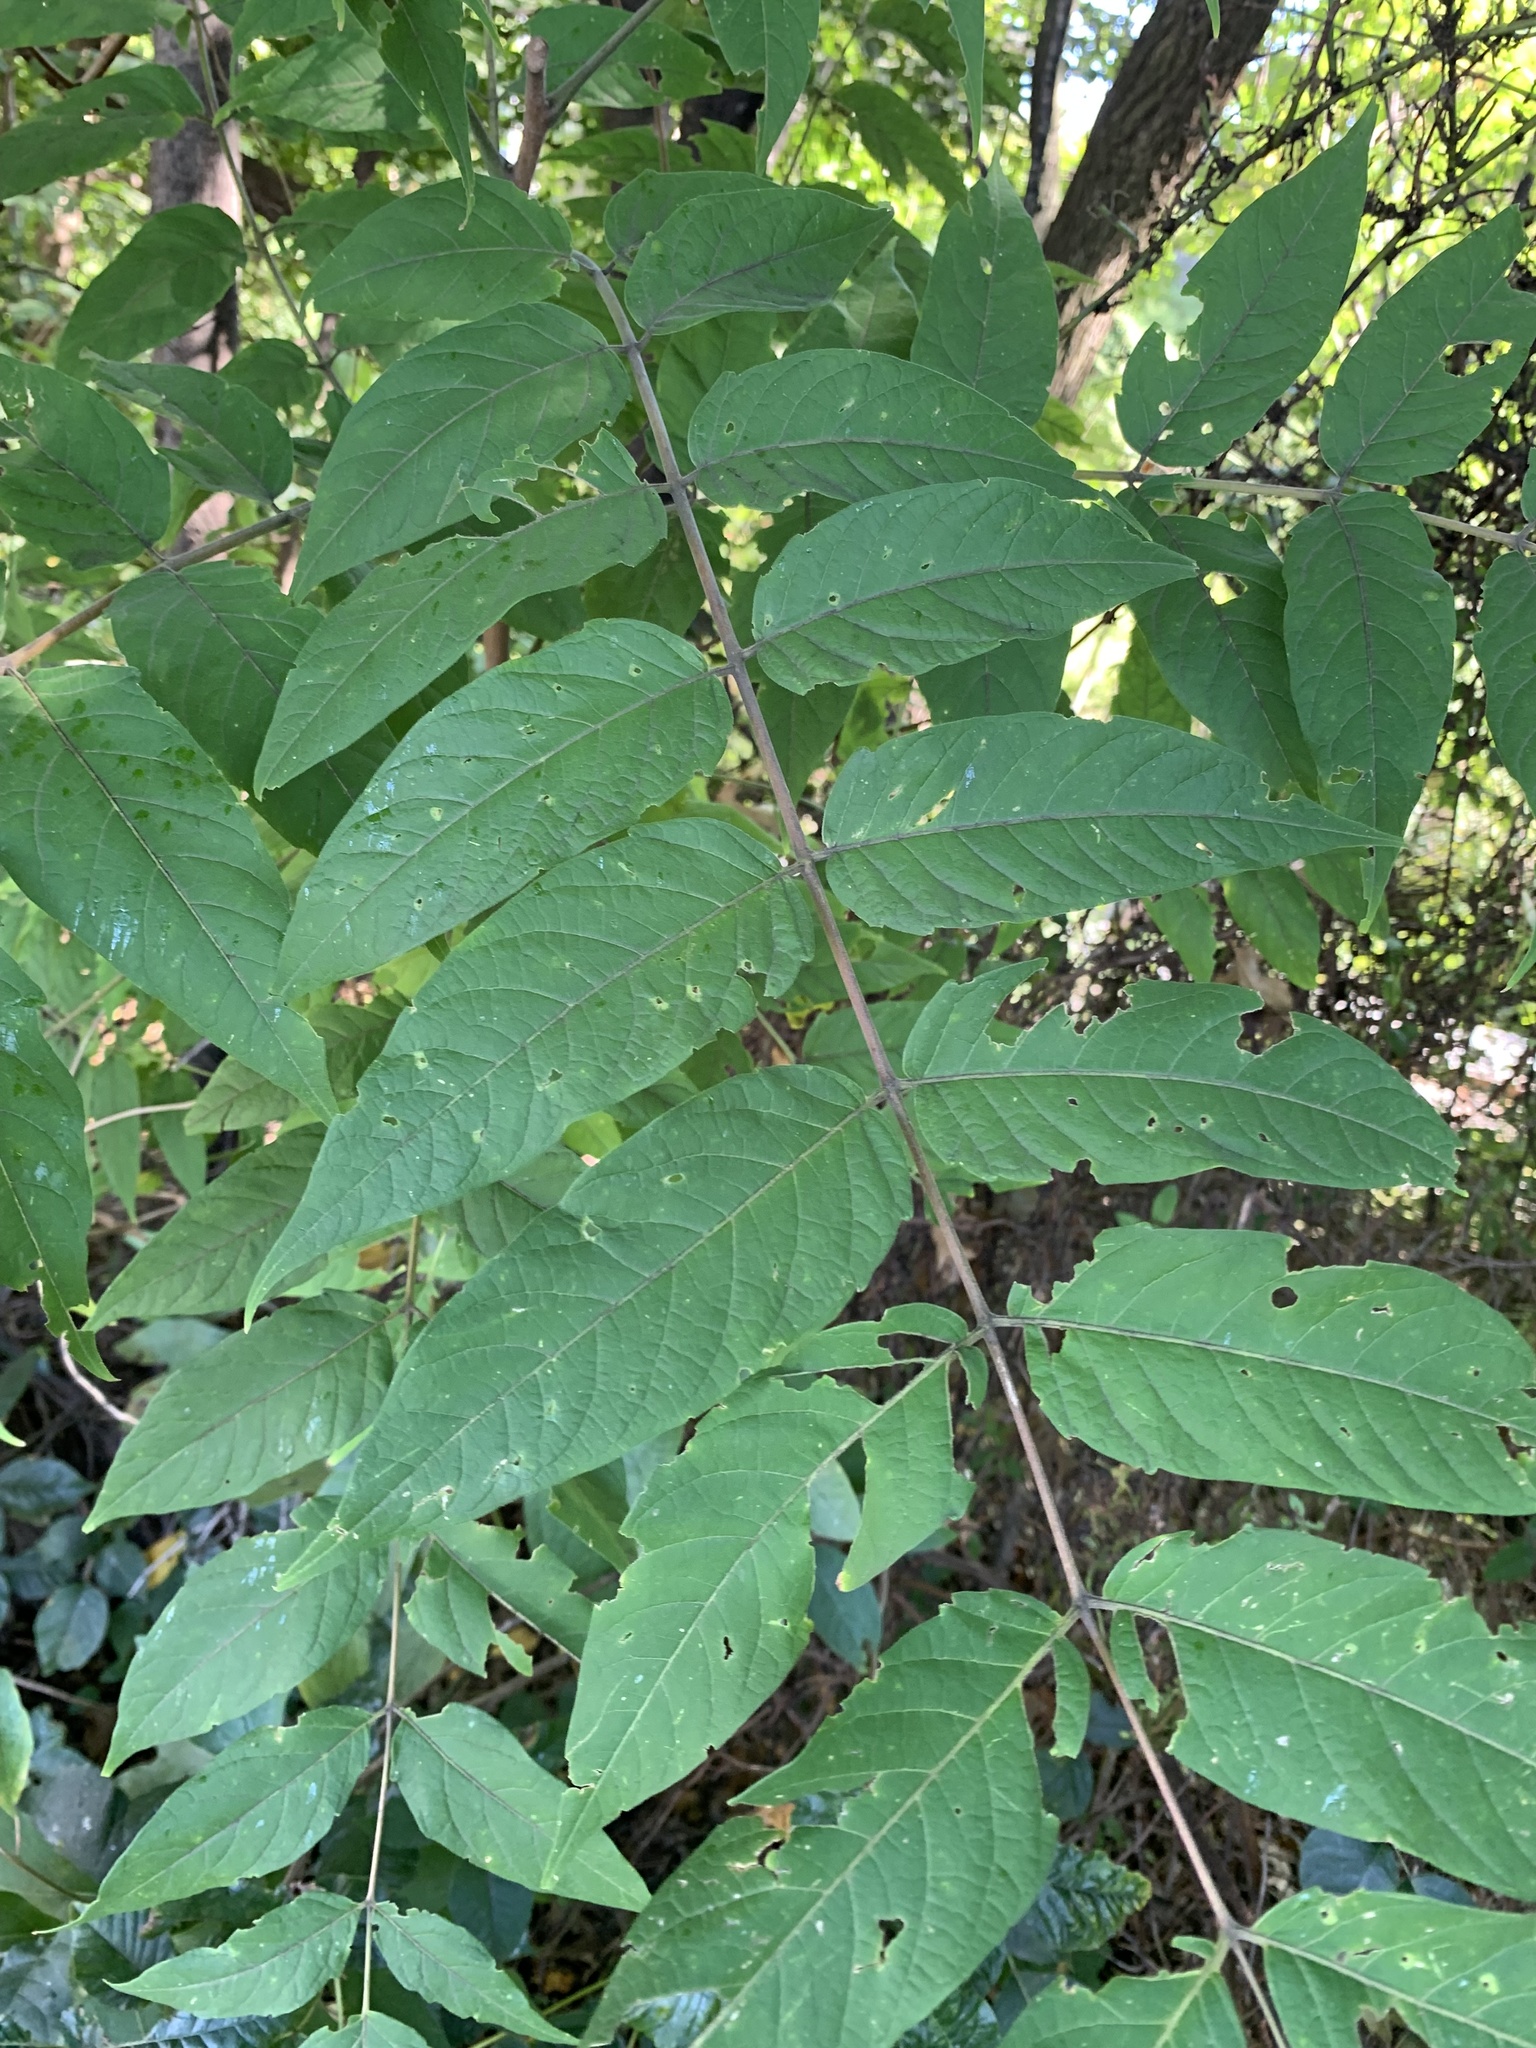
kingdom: Plantae
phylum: Tracheophyta
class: Magnoliopsida
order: Sapindales
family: Simaroubaceae
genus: Ailanthus
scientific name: Ailanthus altissima
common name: Tree-of-heaven
